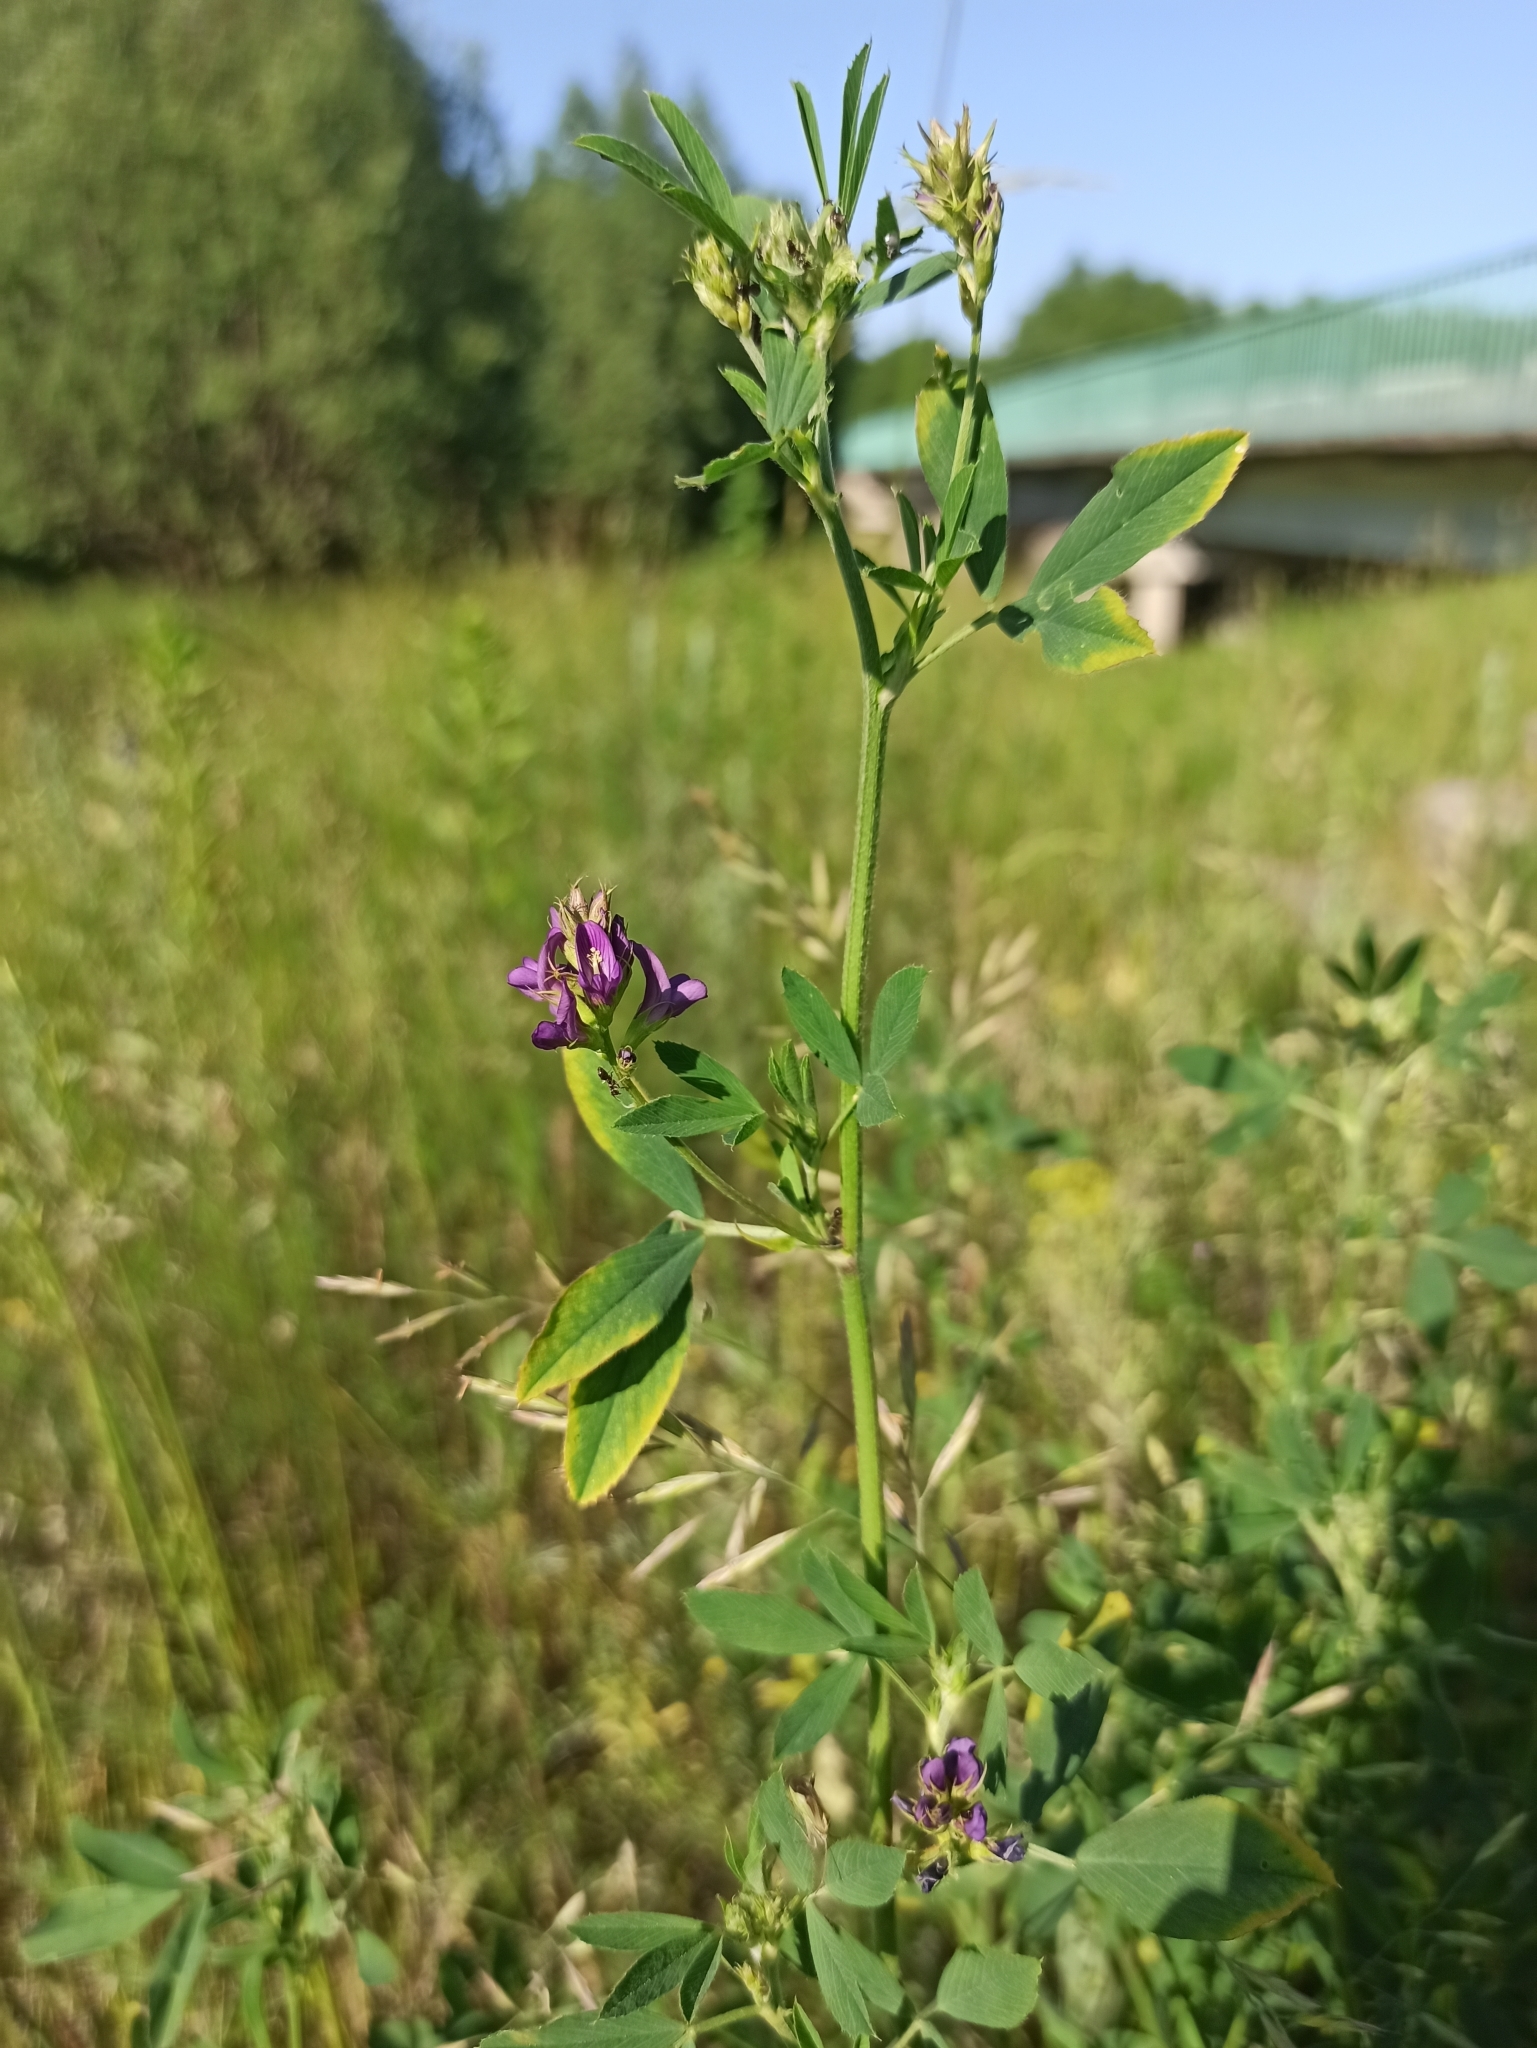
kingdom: Plantae
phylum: Tracheophyta
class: Magnoliopsida
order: Fabales
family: Fabaceae
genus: Medicago
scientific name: Medicago sativa
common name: Alfalfa
